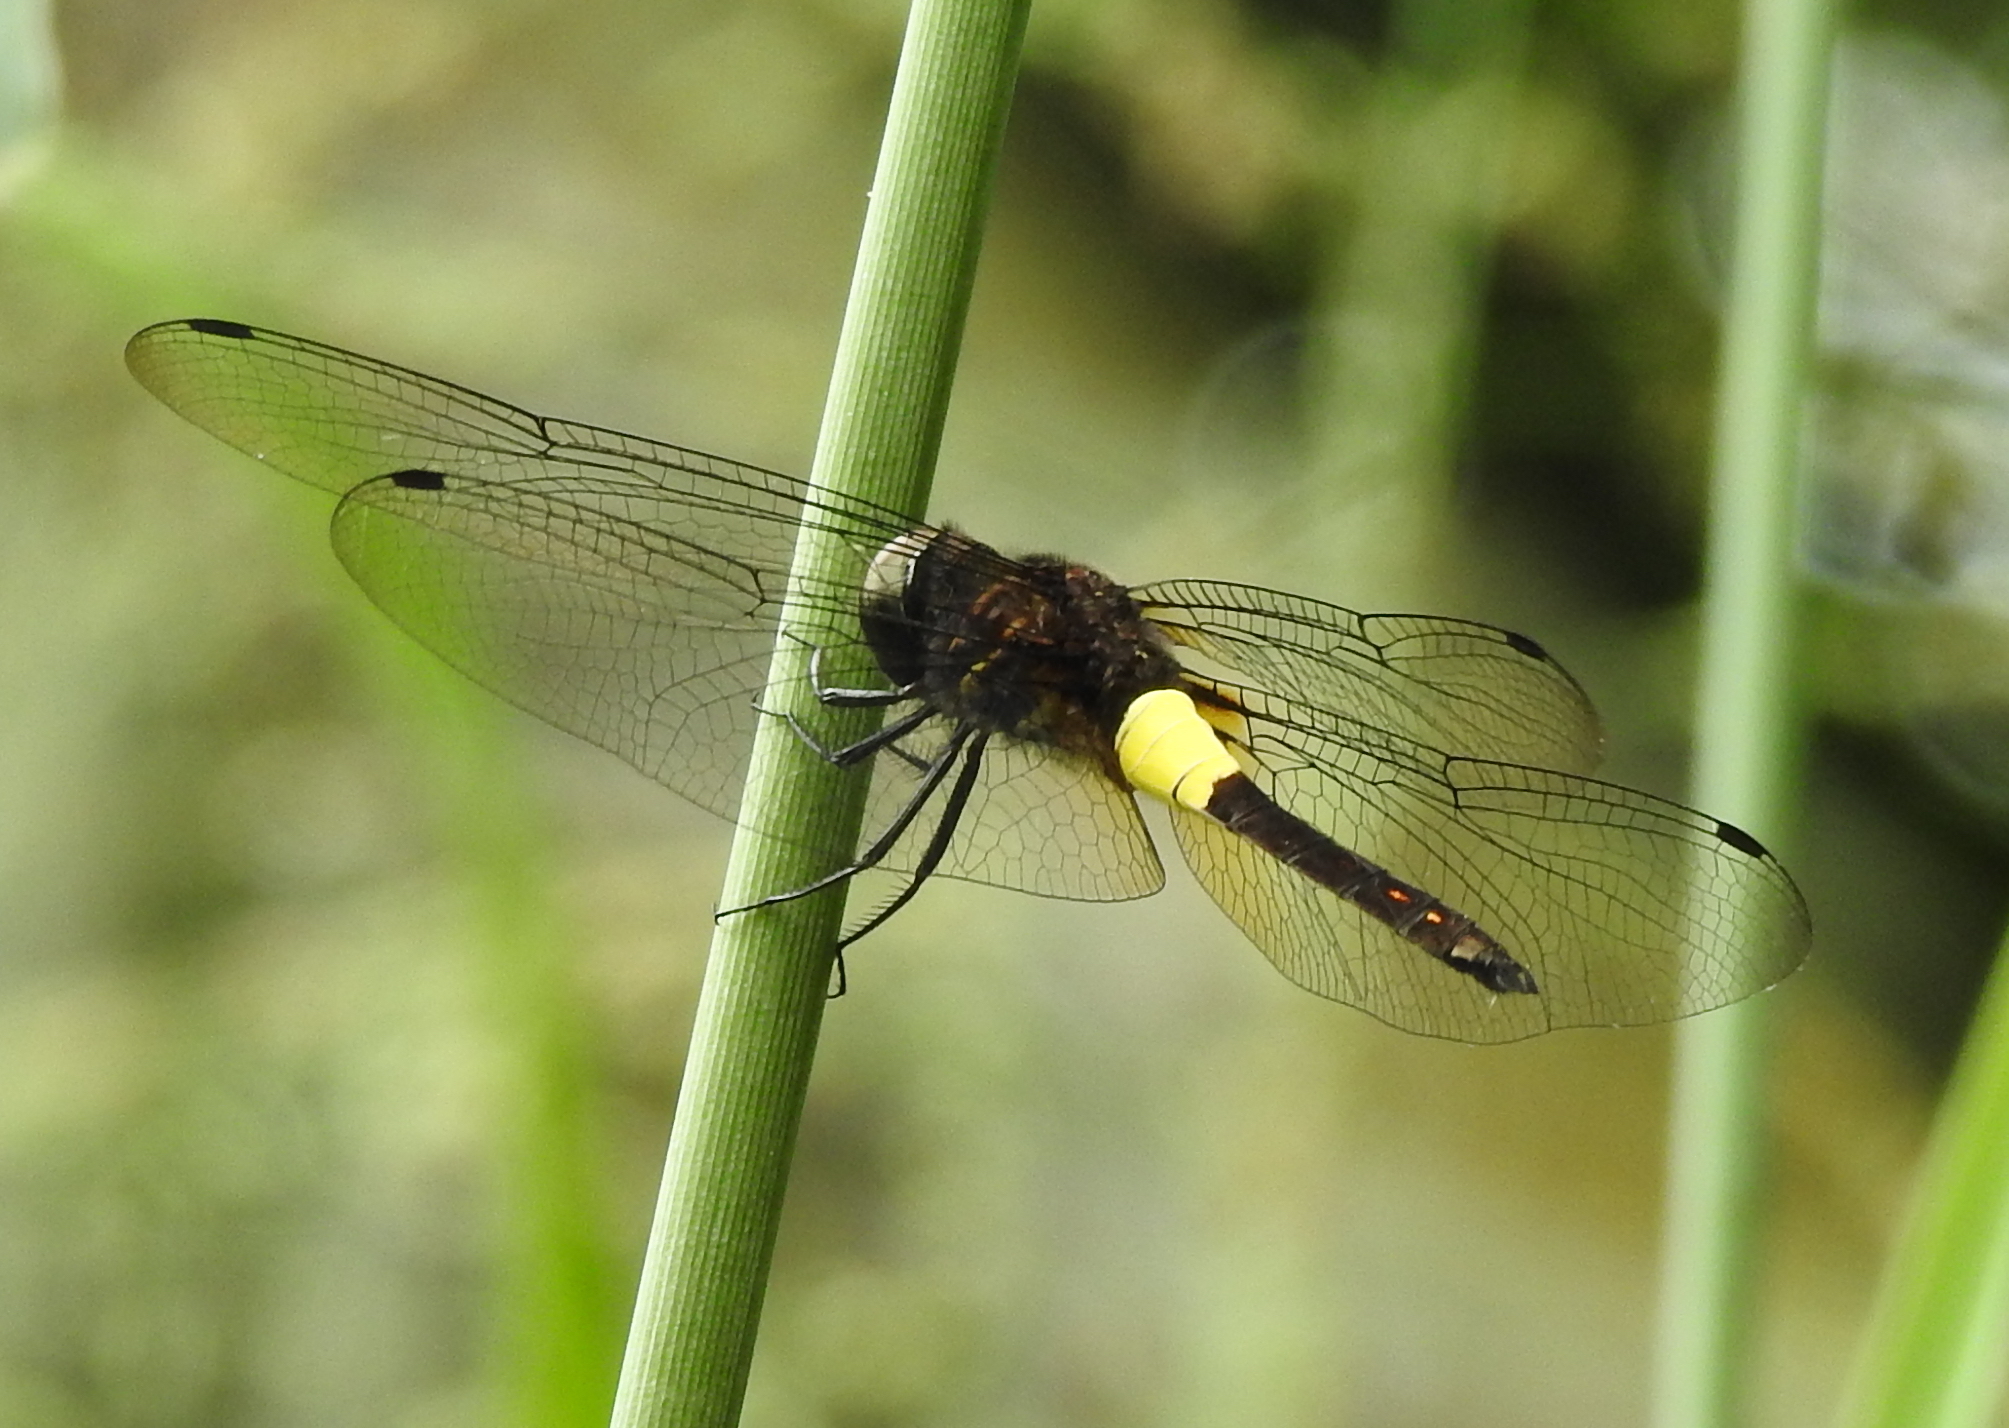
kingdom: Animalia
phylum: Arthropoda
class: Insecta
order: Odonata
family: Libellulidae
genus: Pseudothemis
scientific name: Pseudothemis jorina
